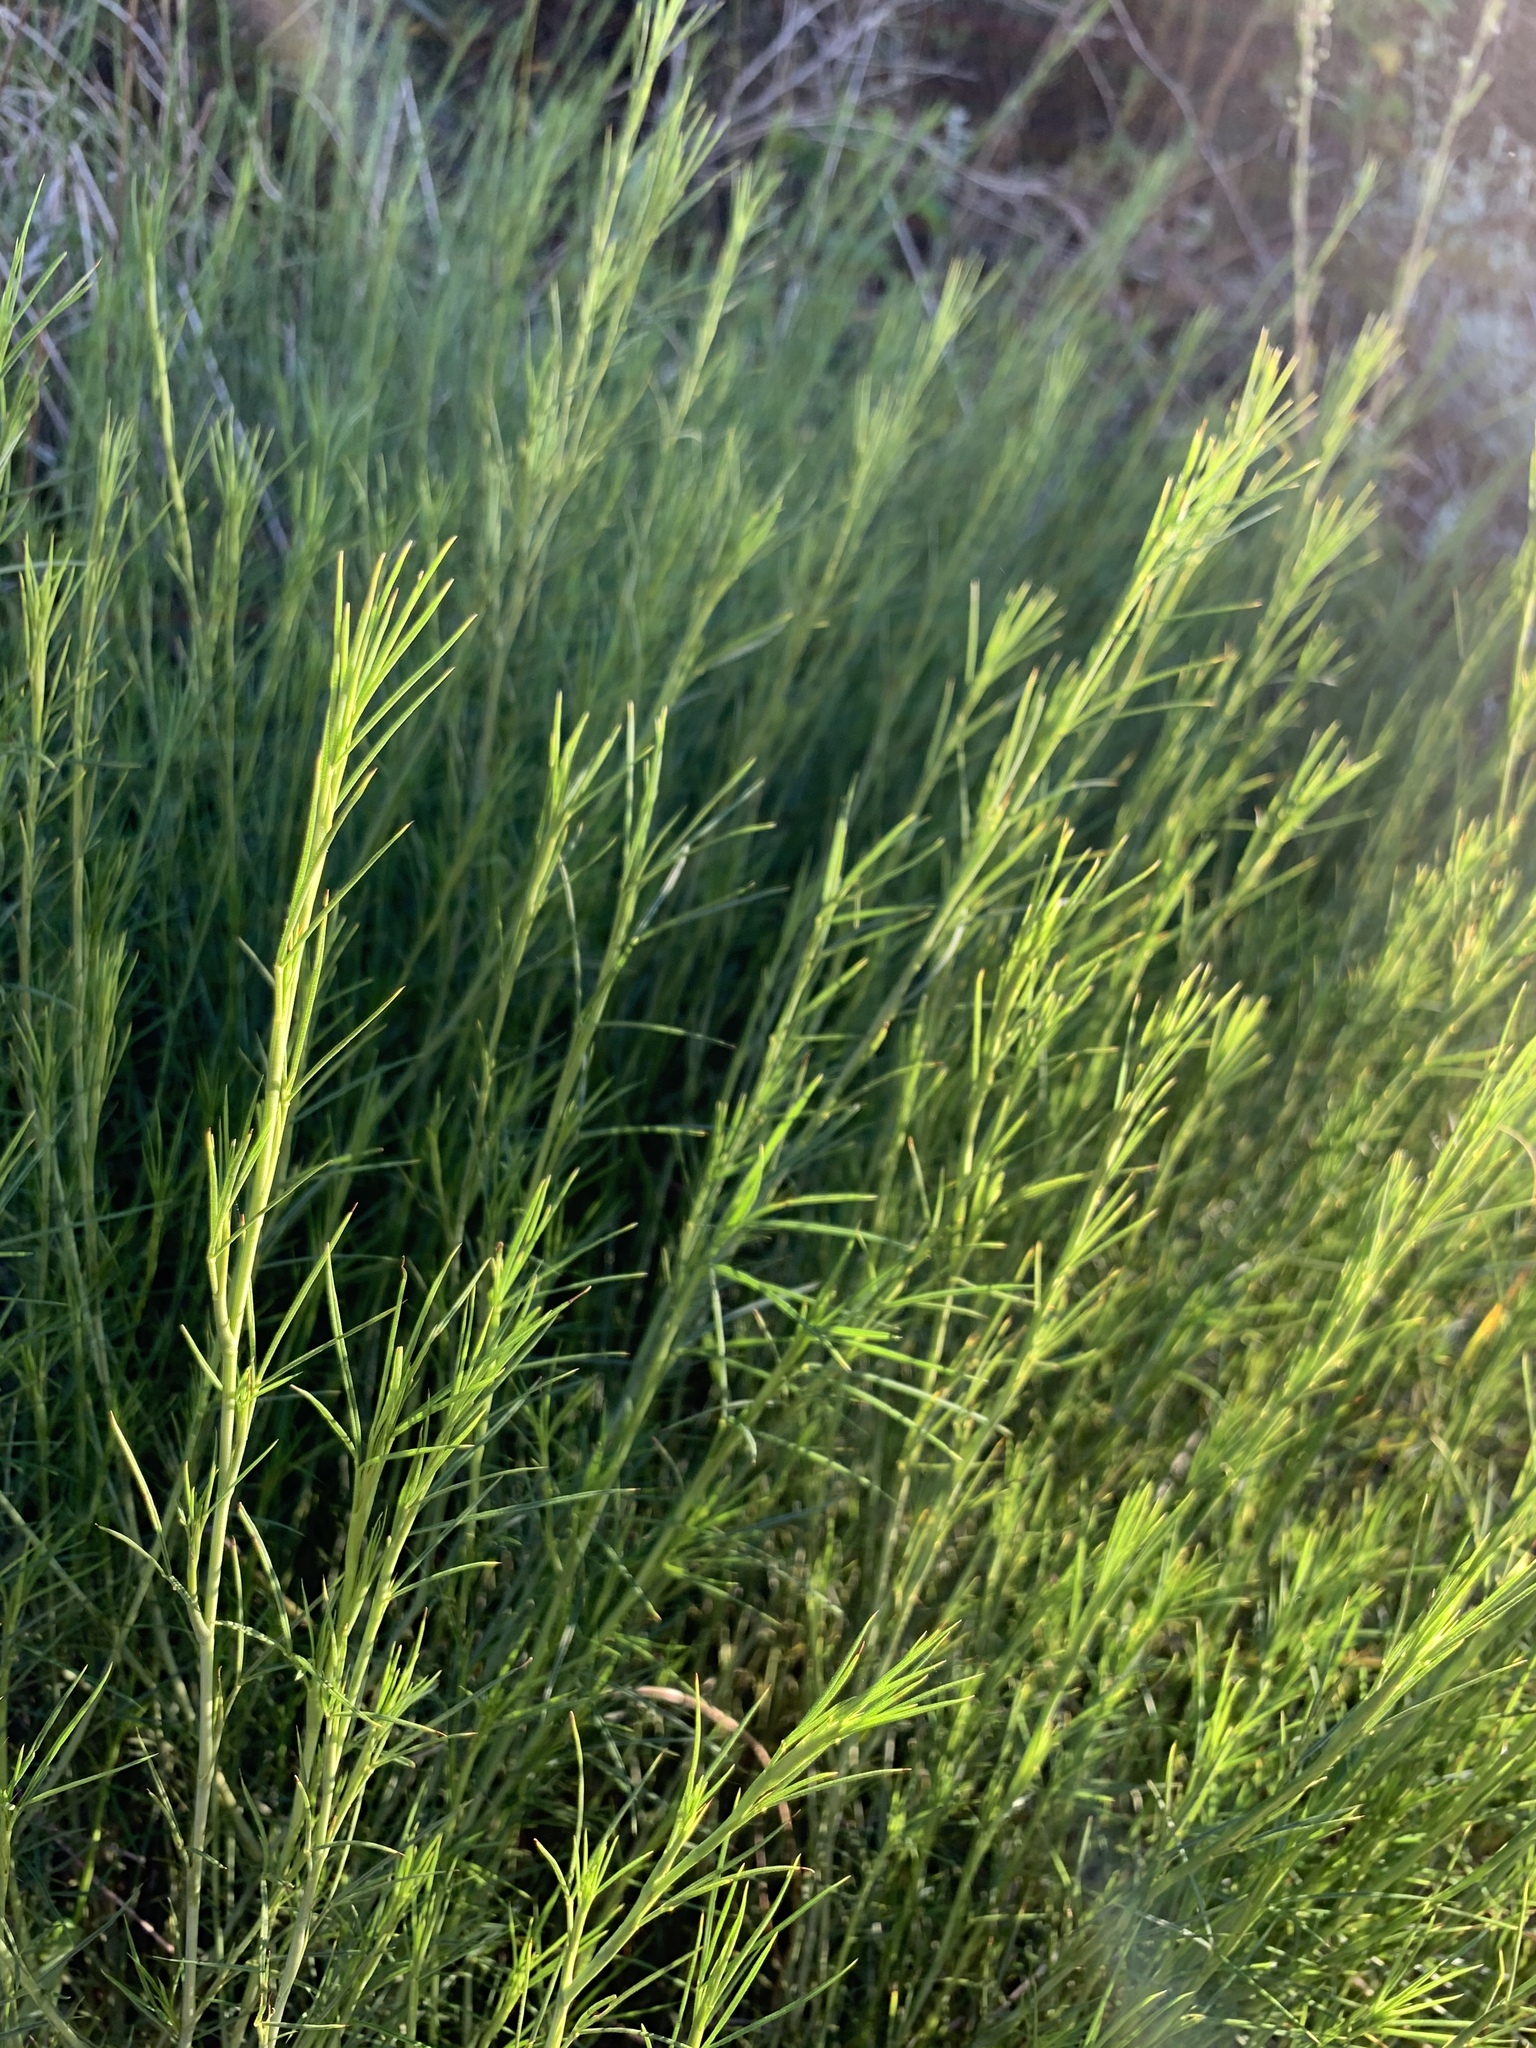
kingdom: Plantae
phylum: Tracheophyta
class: Magnoliopsida
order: Fabales
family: Fabaceae
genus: Psoralea
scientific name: Psoralea alata
